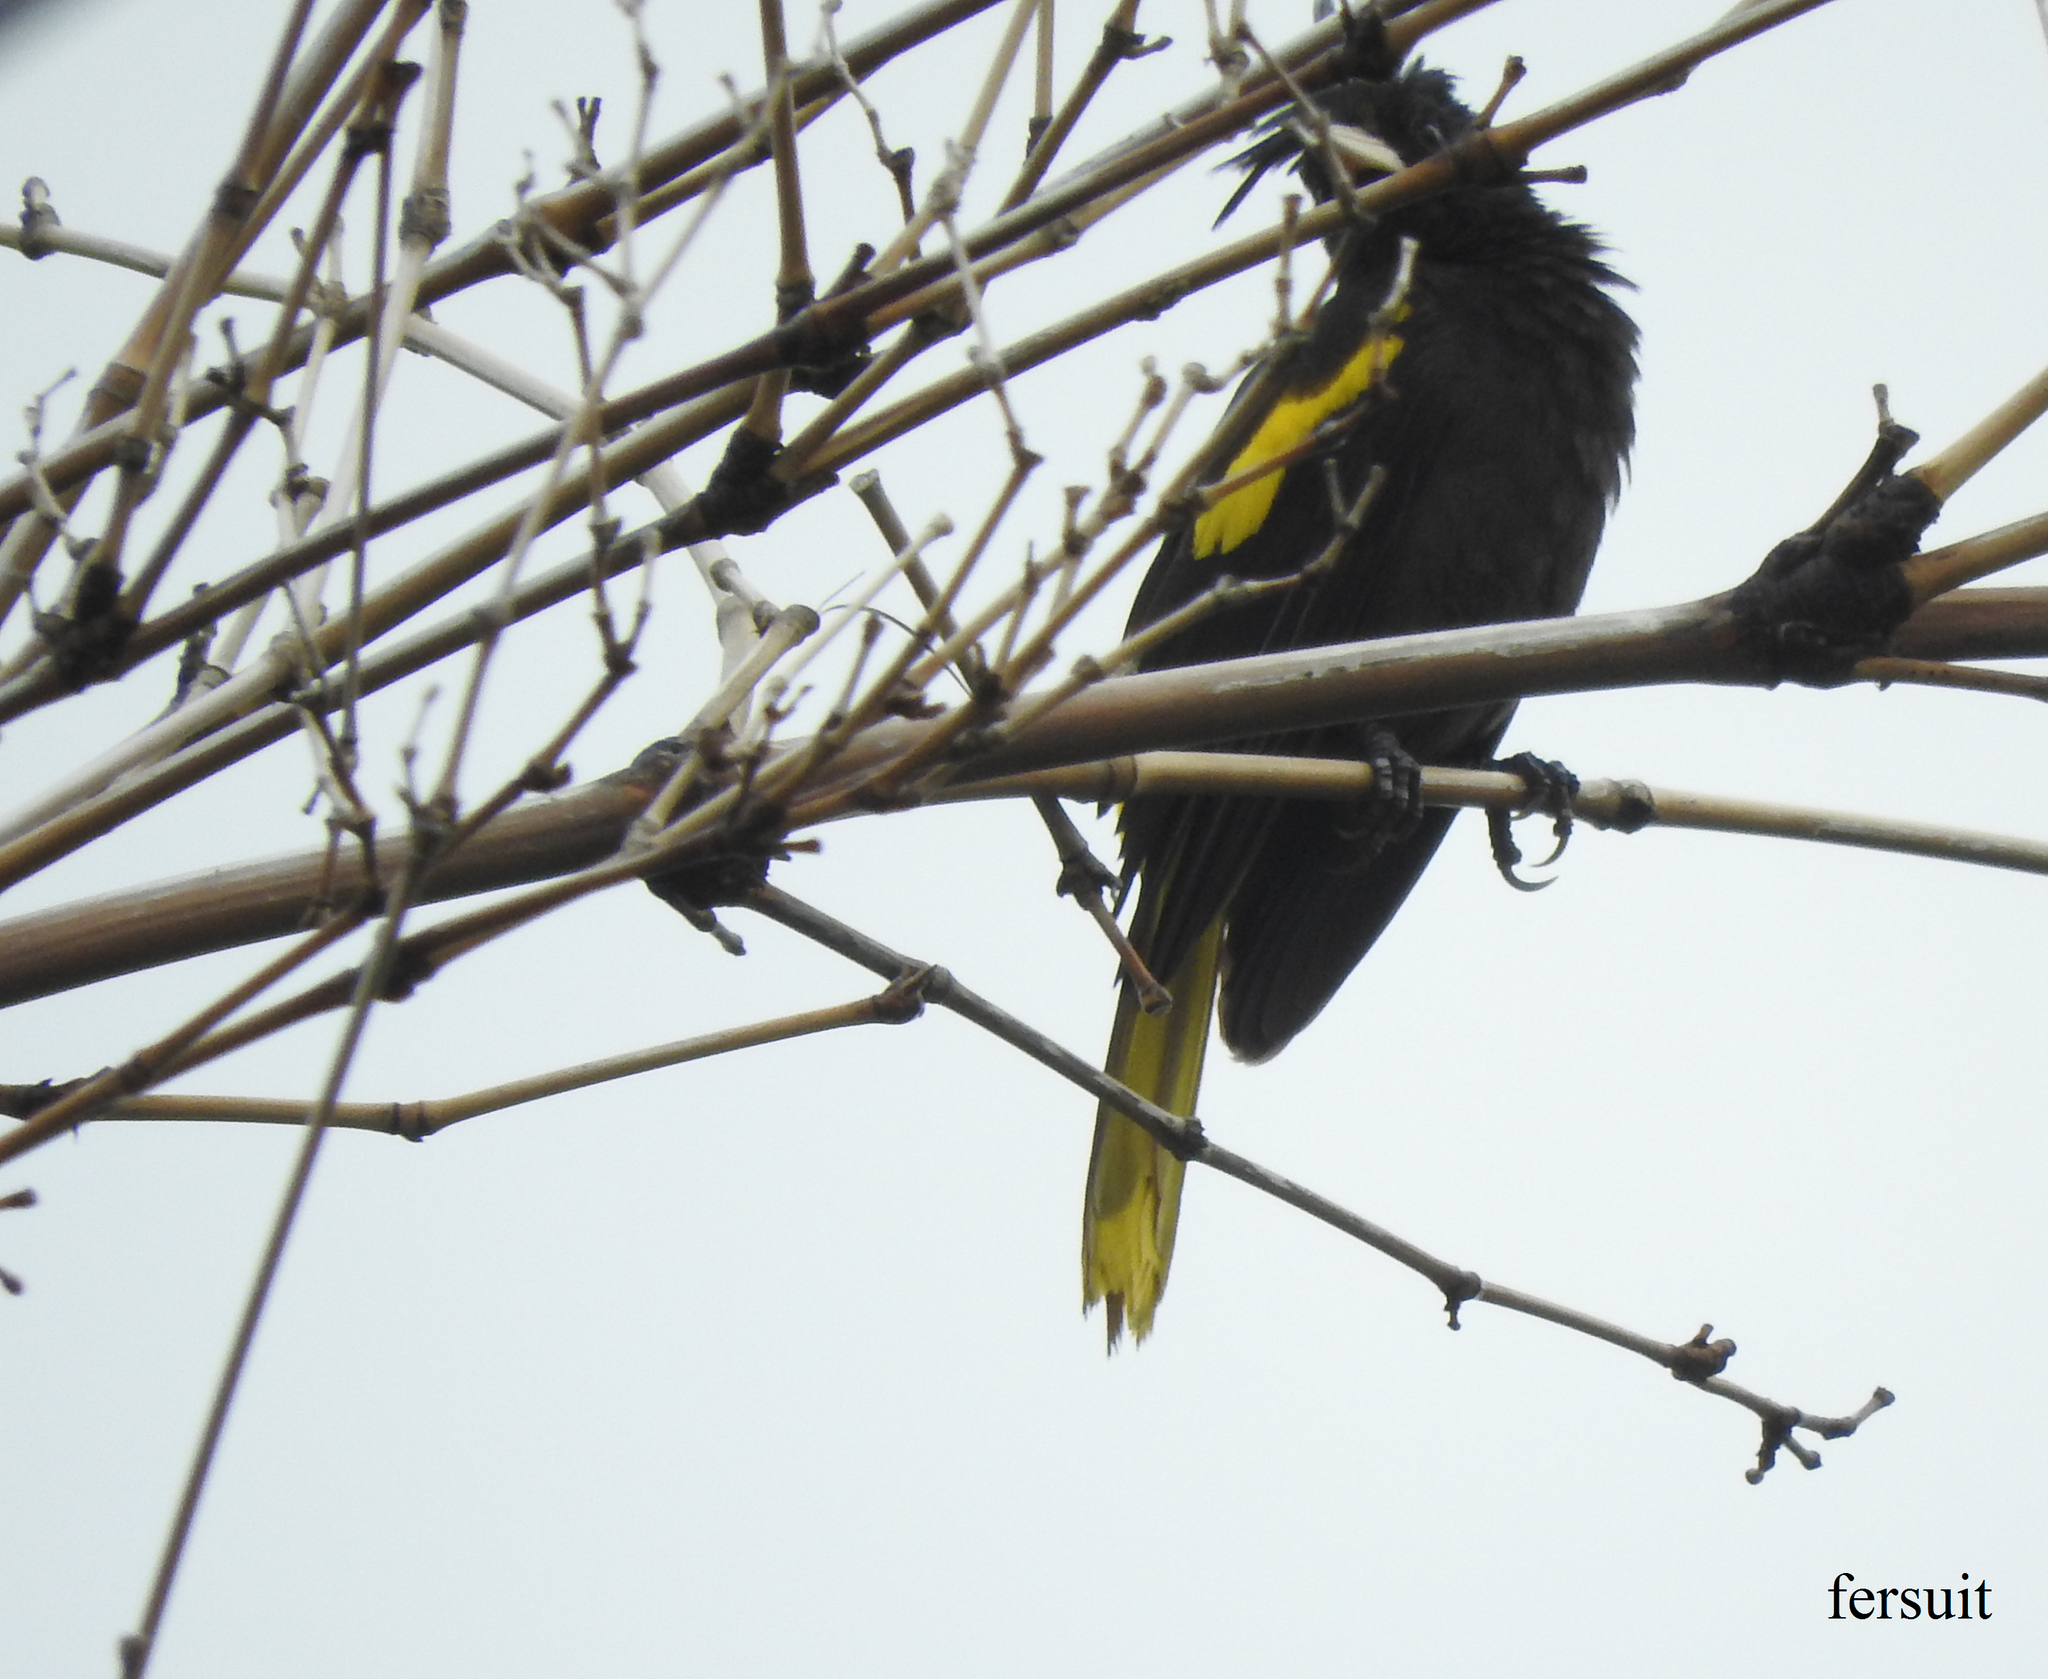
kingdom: Animalia
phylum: Chordata
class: Aves
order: Passeriformes
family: Icteridae
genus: Cacicus
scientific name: Cacicus melanicterus
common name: Yellow-winged cacique
